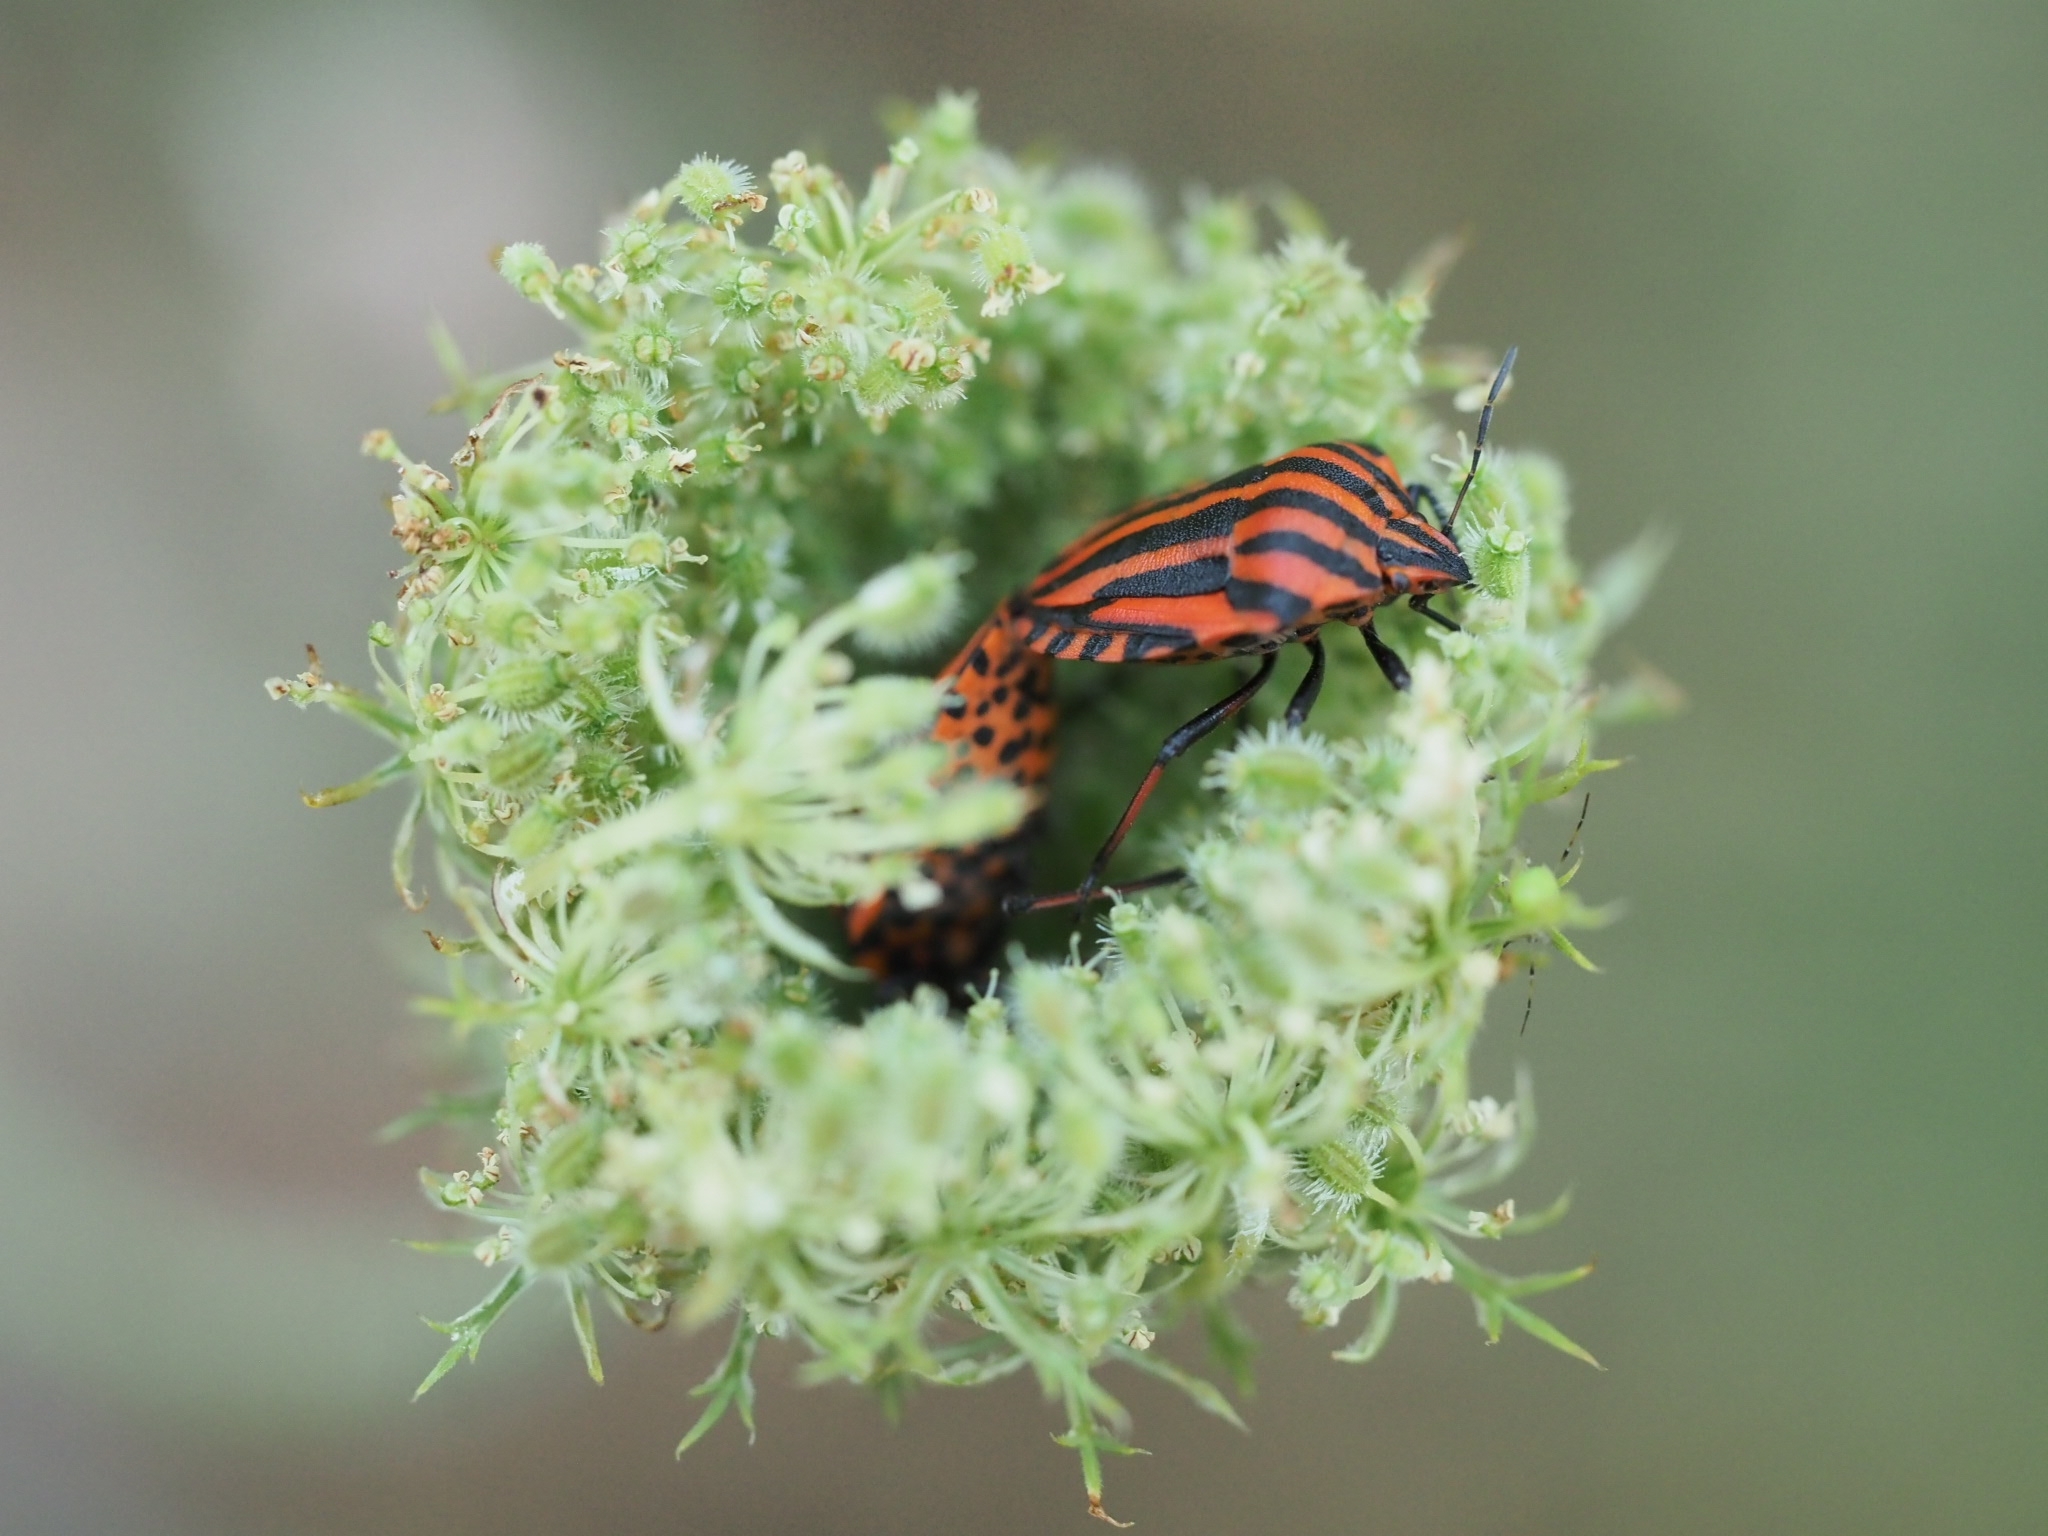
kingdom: Animalia
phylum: Arthropoda
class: Insecta
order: Hemiptera
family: Pentatomidae
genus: Graphosoma
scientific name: Graphosoma italicum
